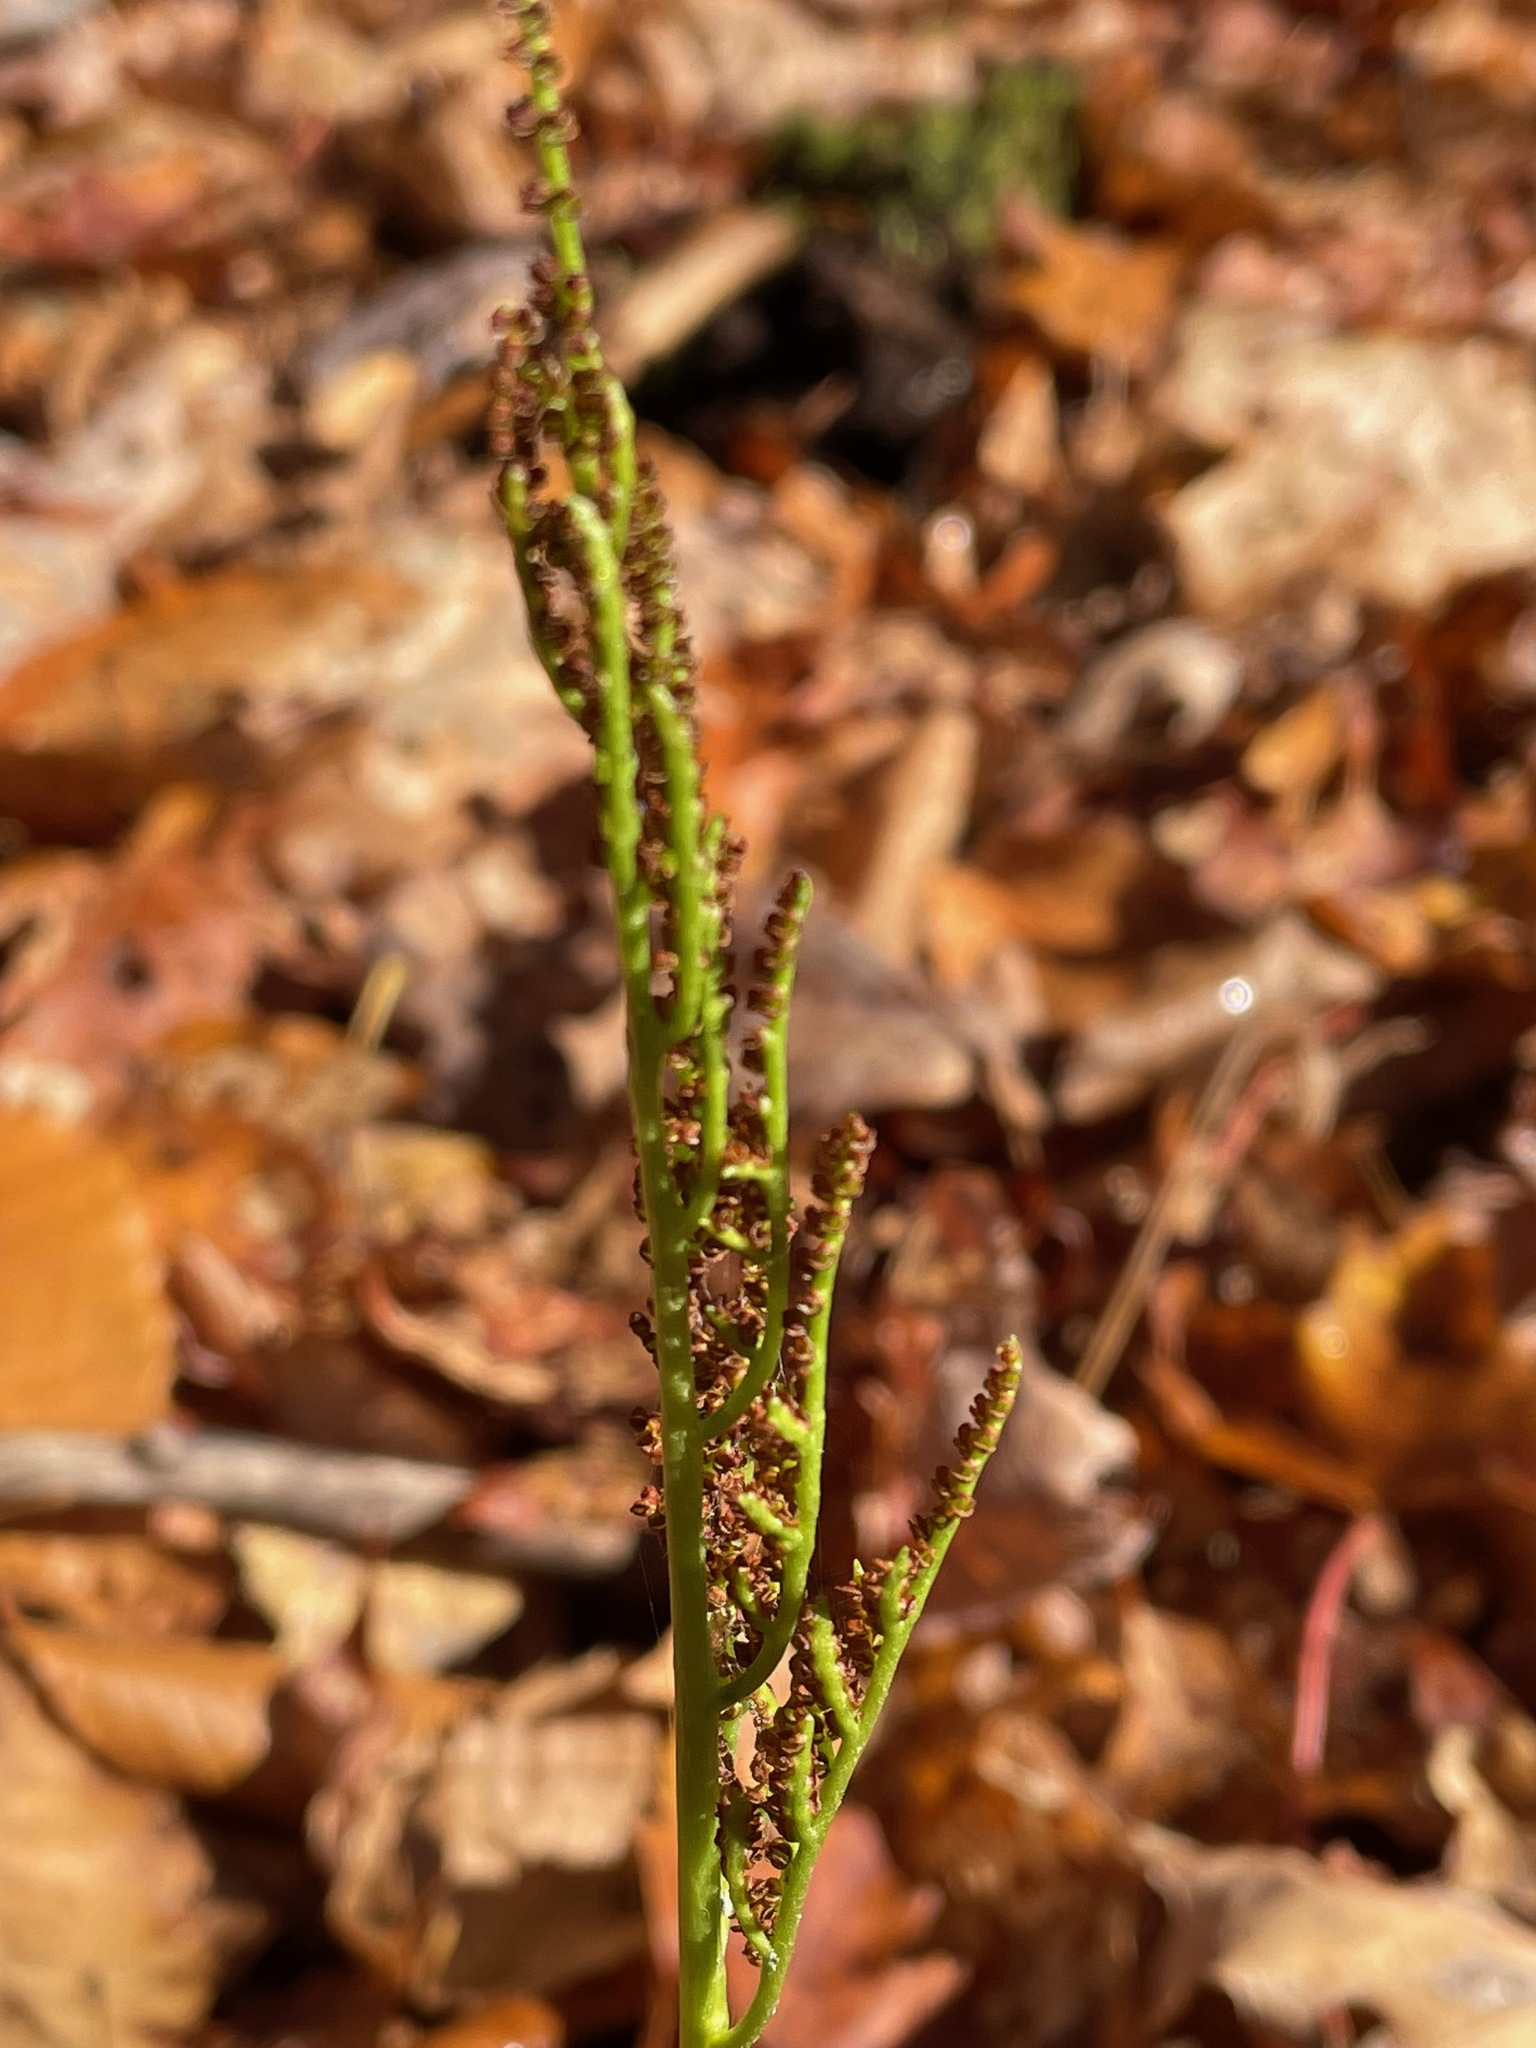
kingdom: Plantae
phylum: Tracheophyta
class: Polypodiopsida
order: Ophioglossales
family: Ophioglossaceae
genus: Sceptridium
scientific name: Sceptridium dissectum
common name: Cut-leaved grapefern
